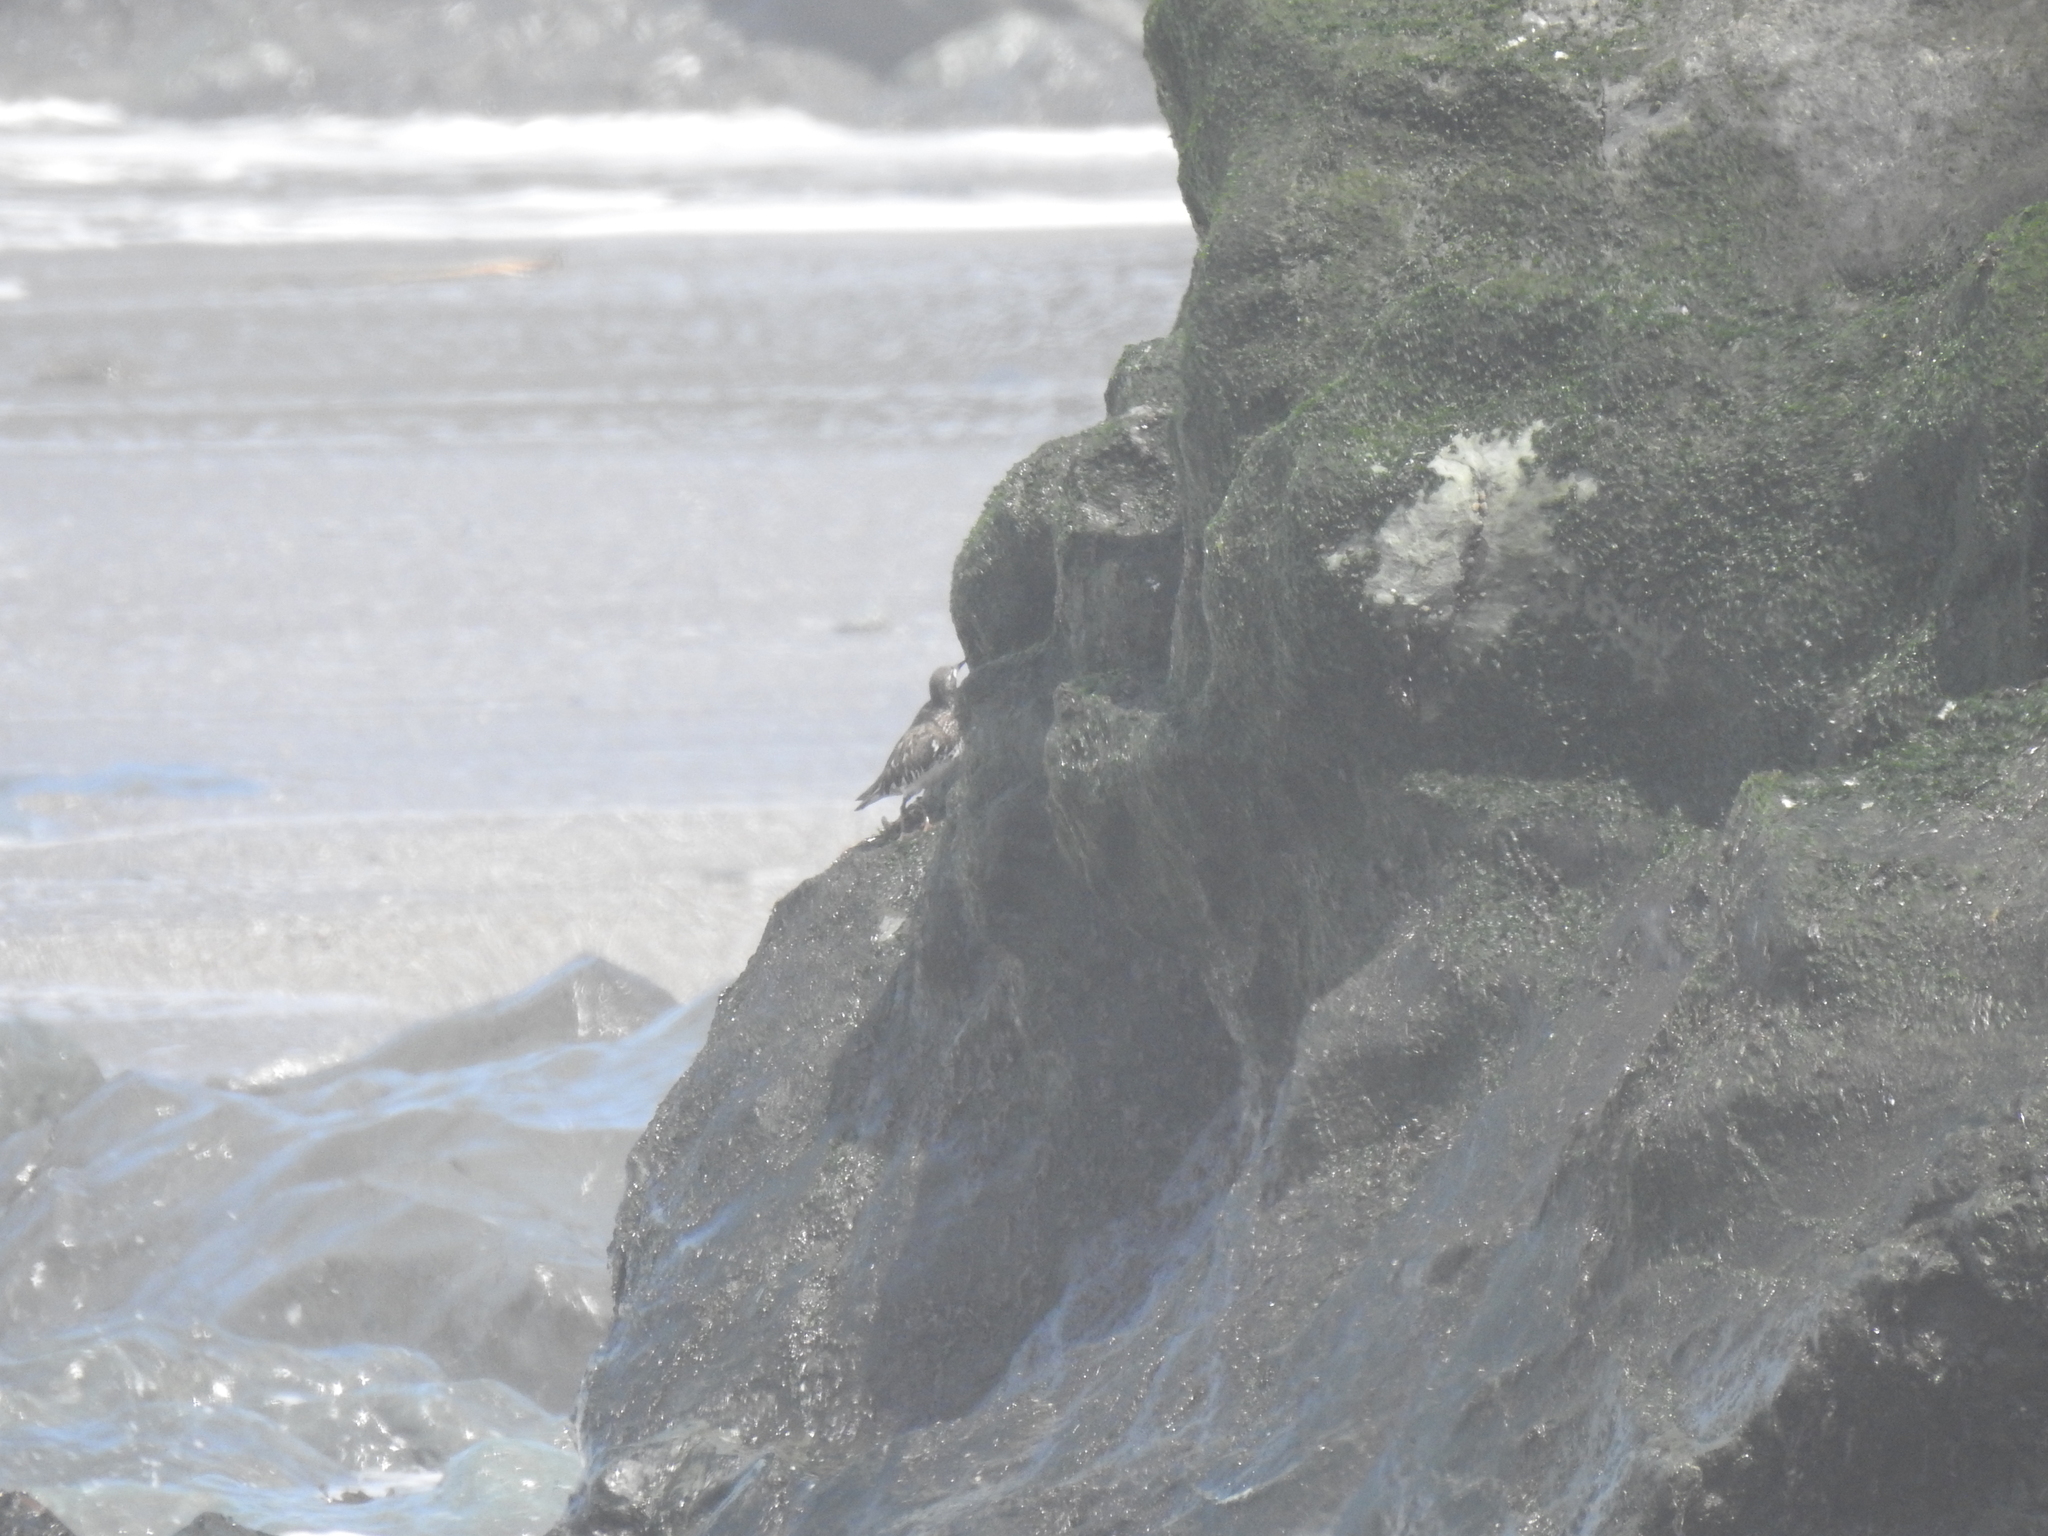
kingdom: Animalia
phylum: Chordata
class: Aves
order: Charadriiformes
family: Scolopacidae
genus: Arenaria
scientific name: Arenaria melanocephala
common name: Black turnstone
